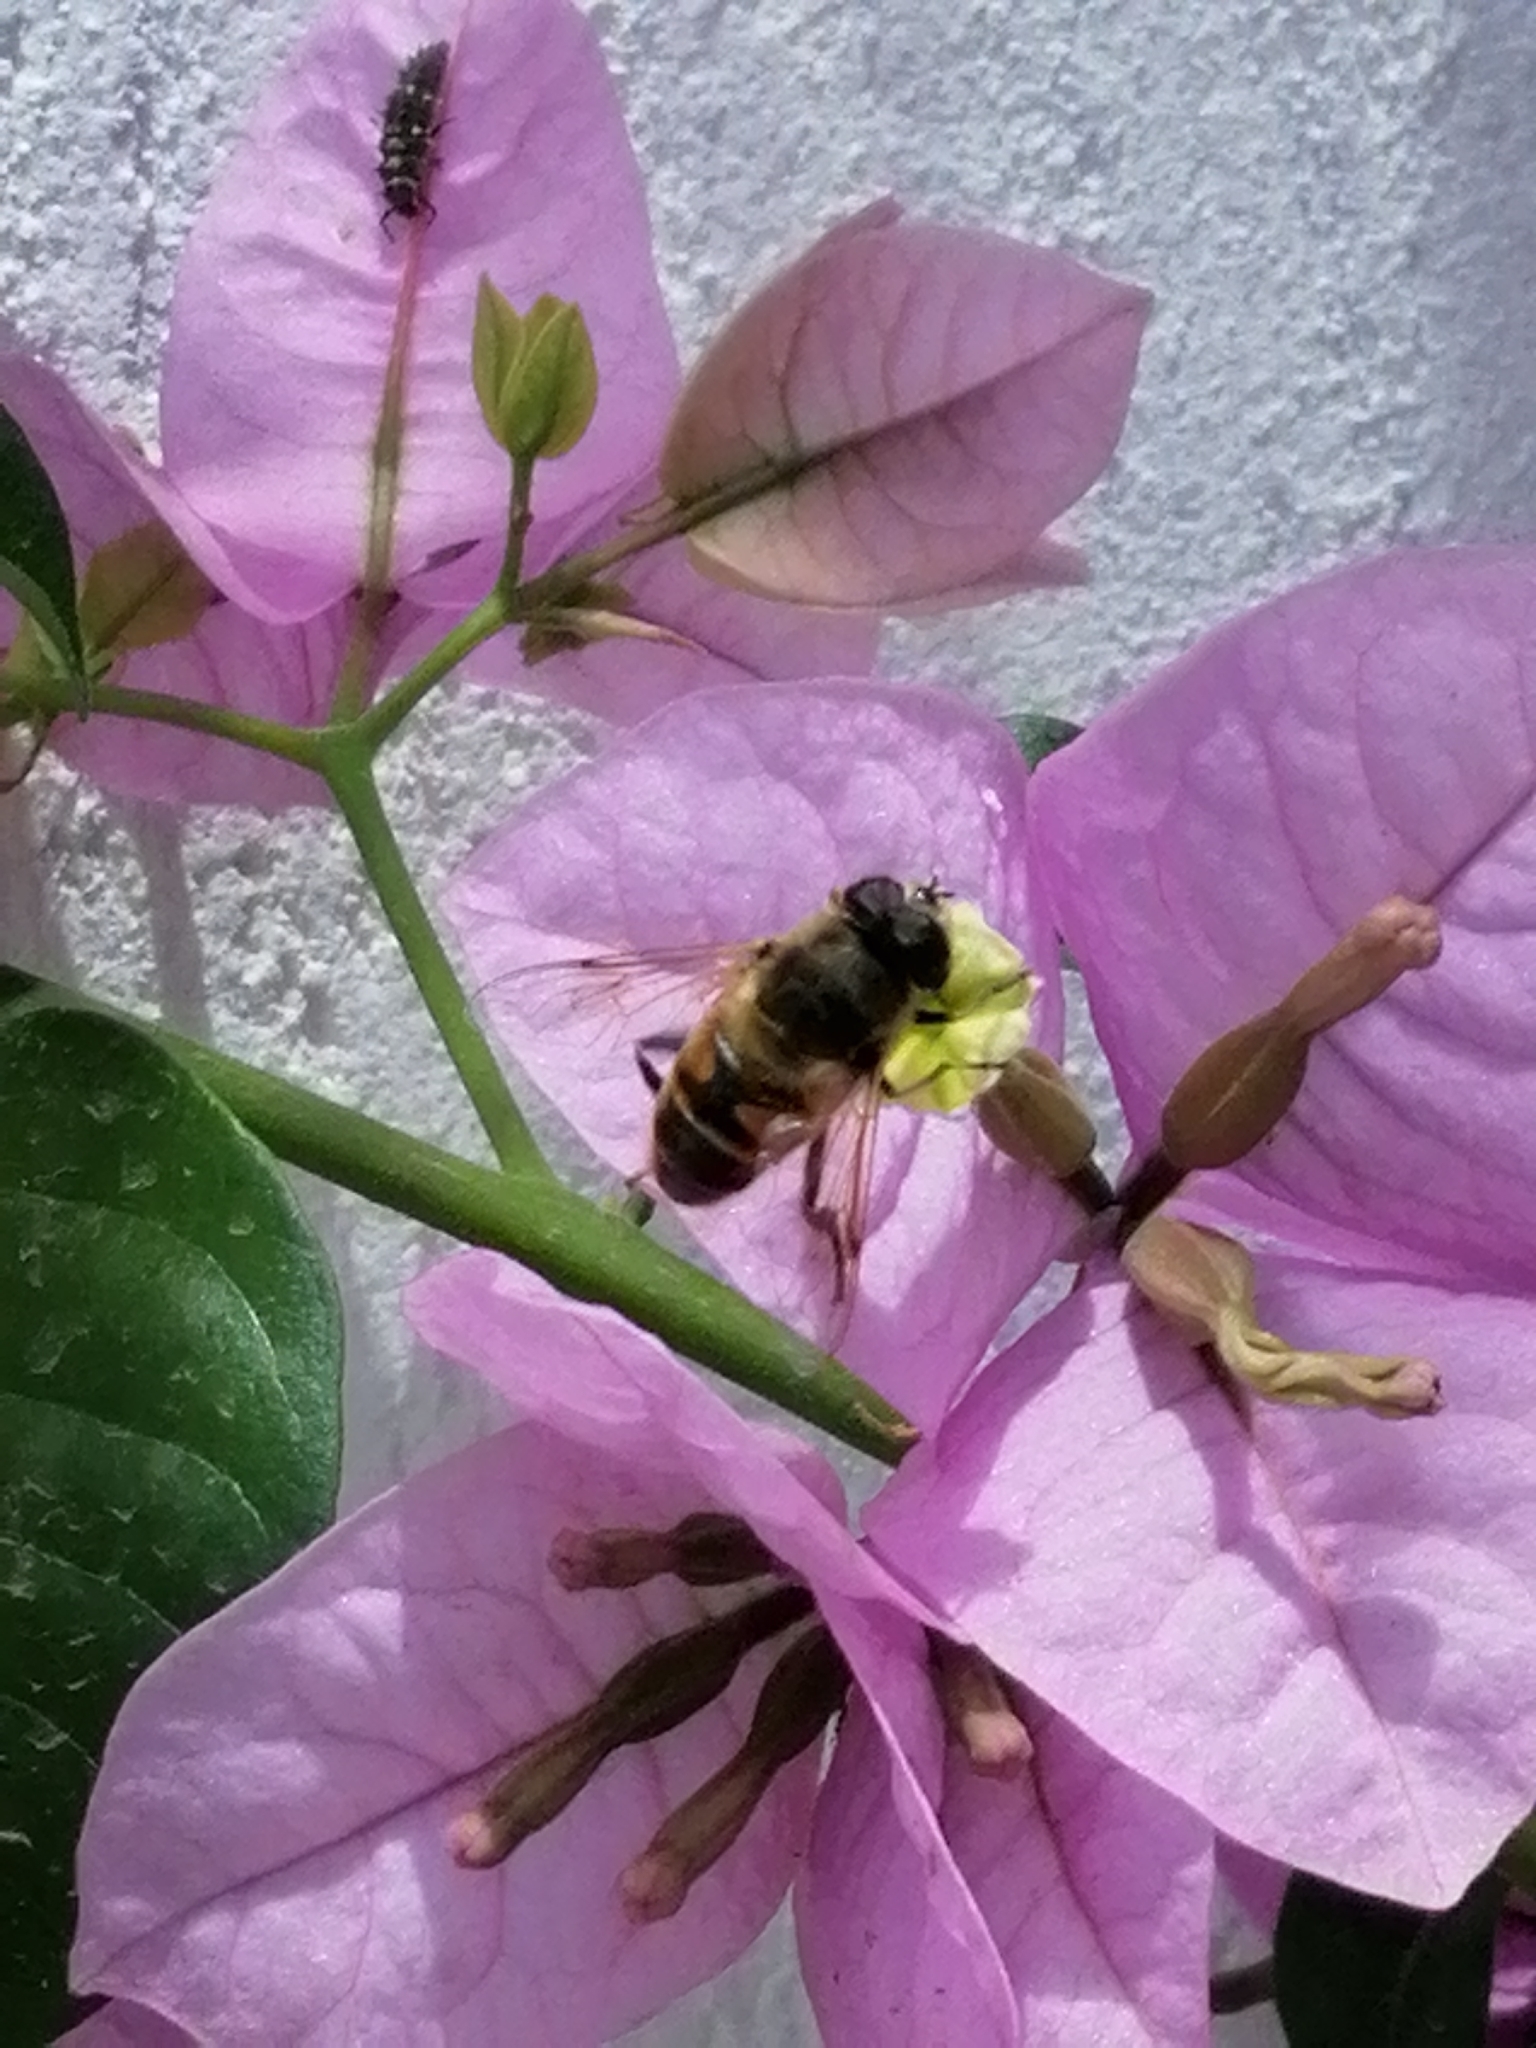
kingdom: Animalia
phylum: Arthropoda
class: Insecta
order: Diptera
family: Syrphidae
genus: Eristalis
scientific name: Eristalis tenax
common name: Drone fly
